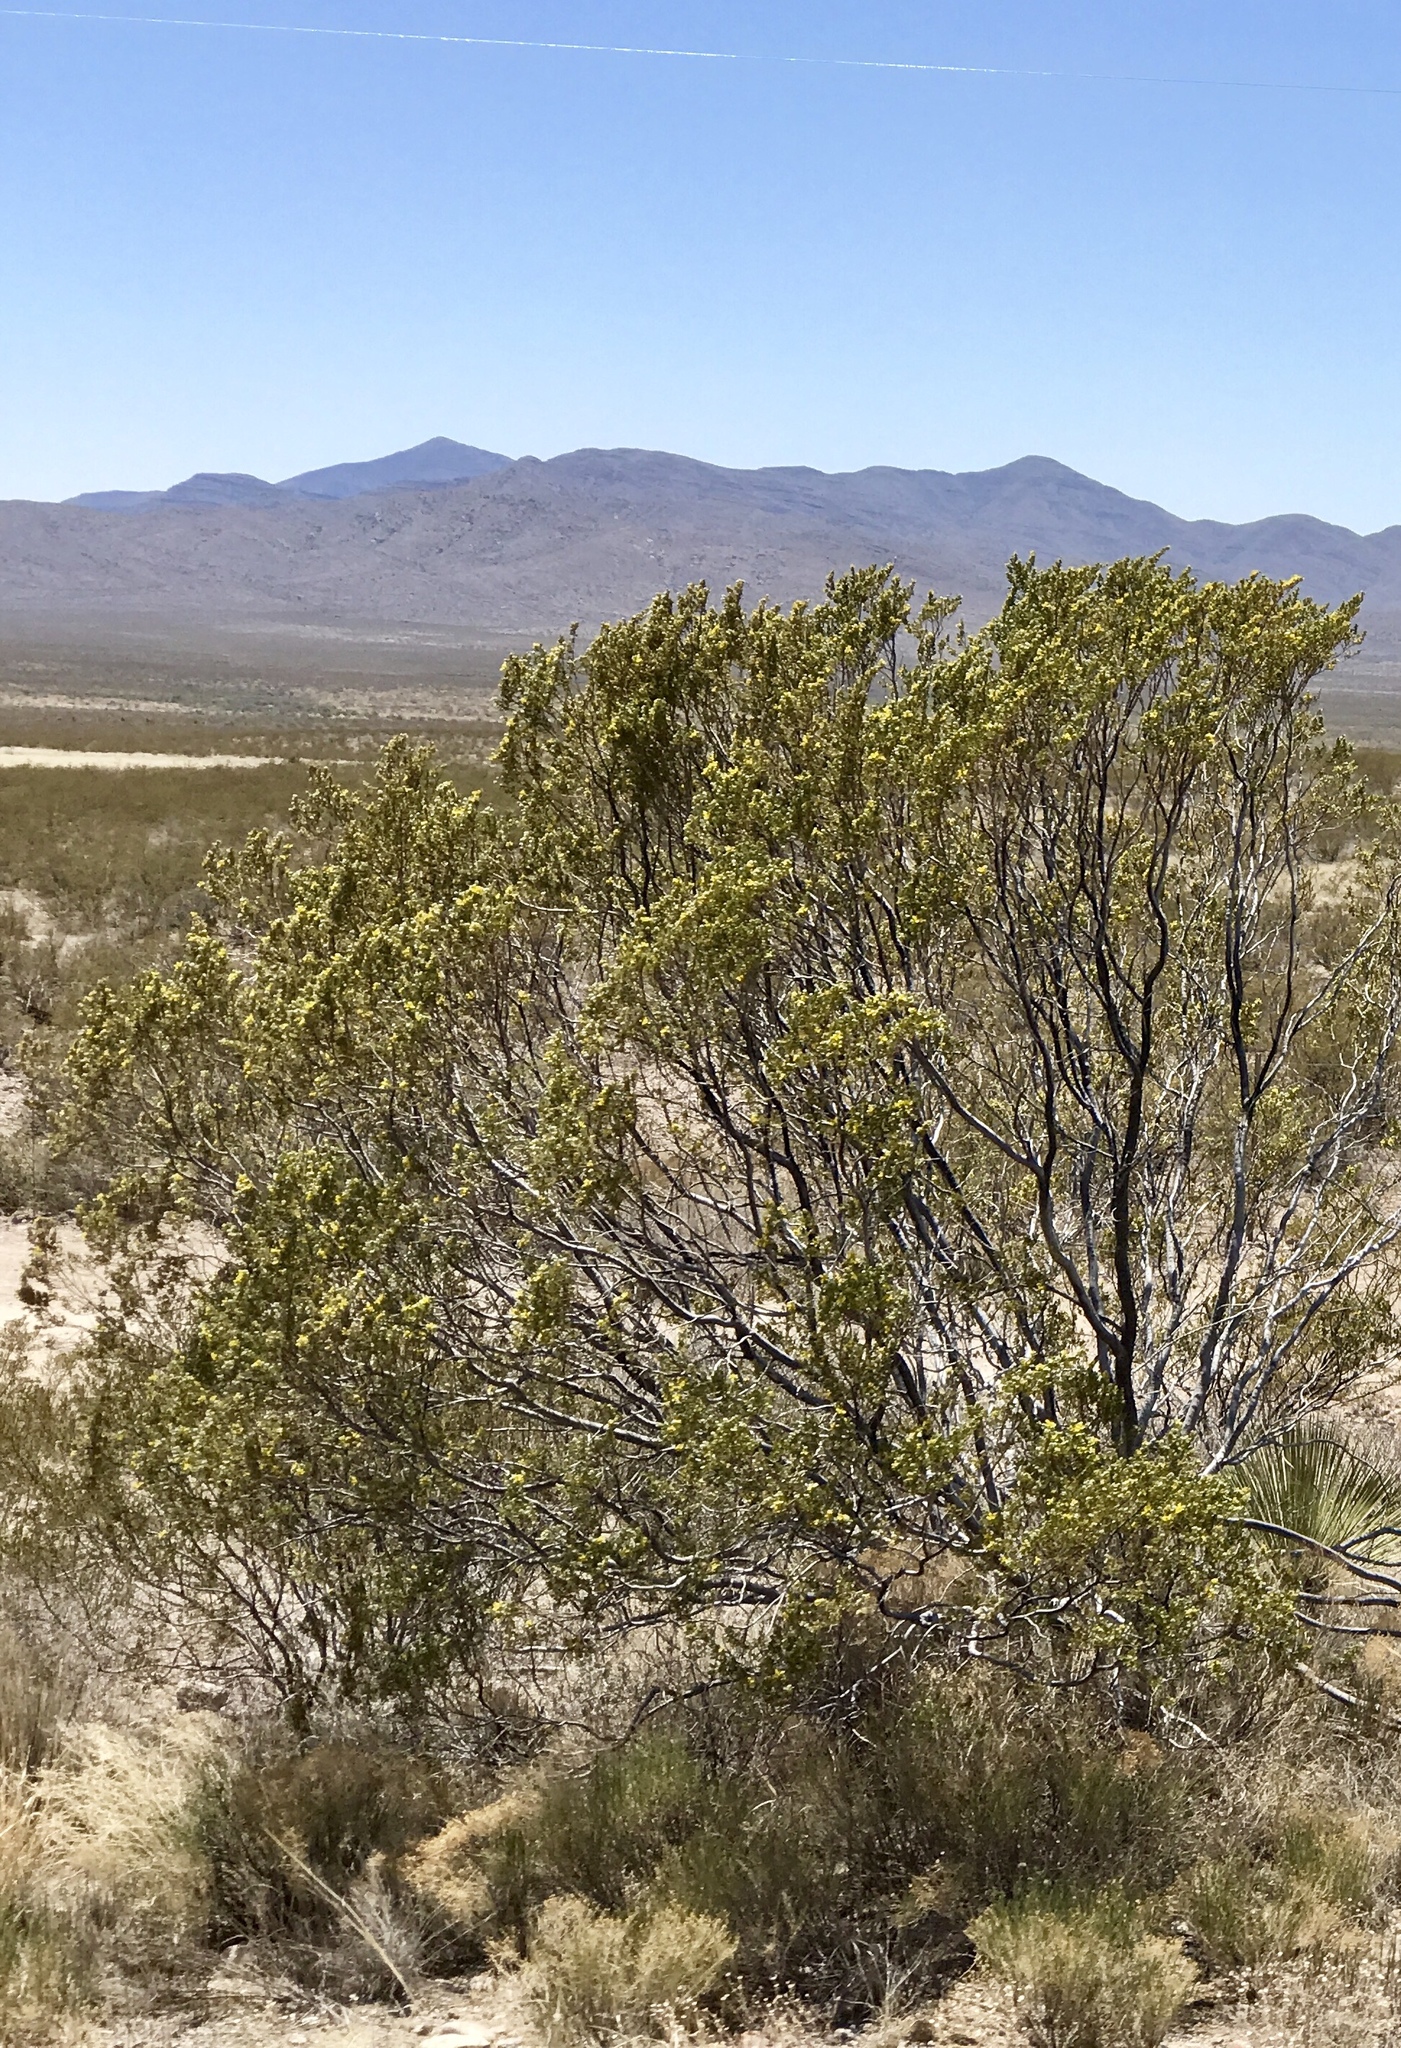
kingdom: Plantae
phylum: Tracheophyta
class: Magnoliopsida
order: Zygophyllales
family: Zygophyllaceae
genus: Larrea
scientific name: Larrea tridentata
